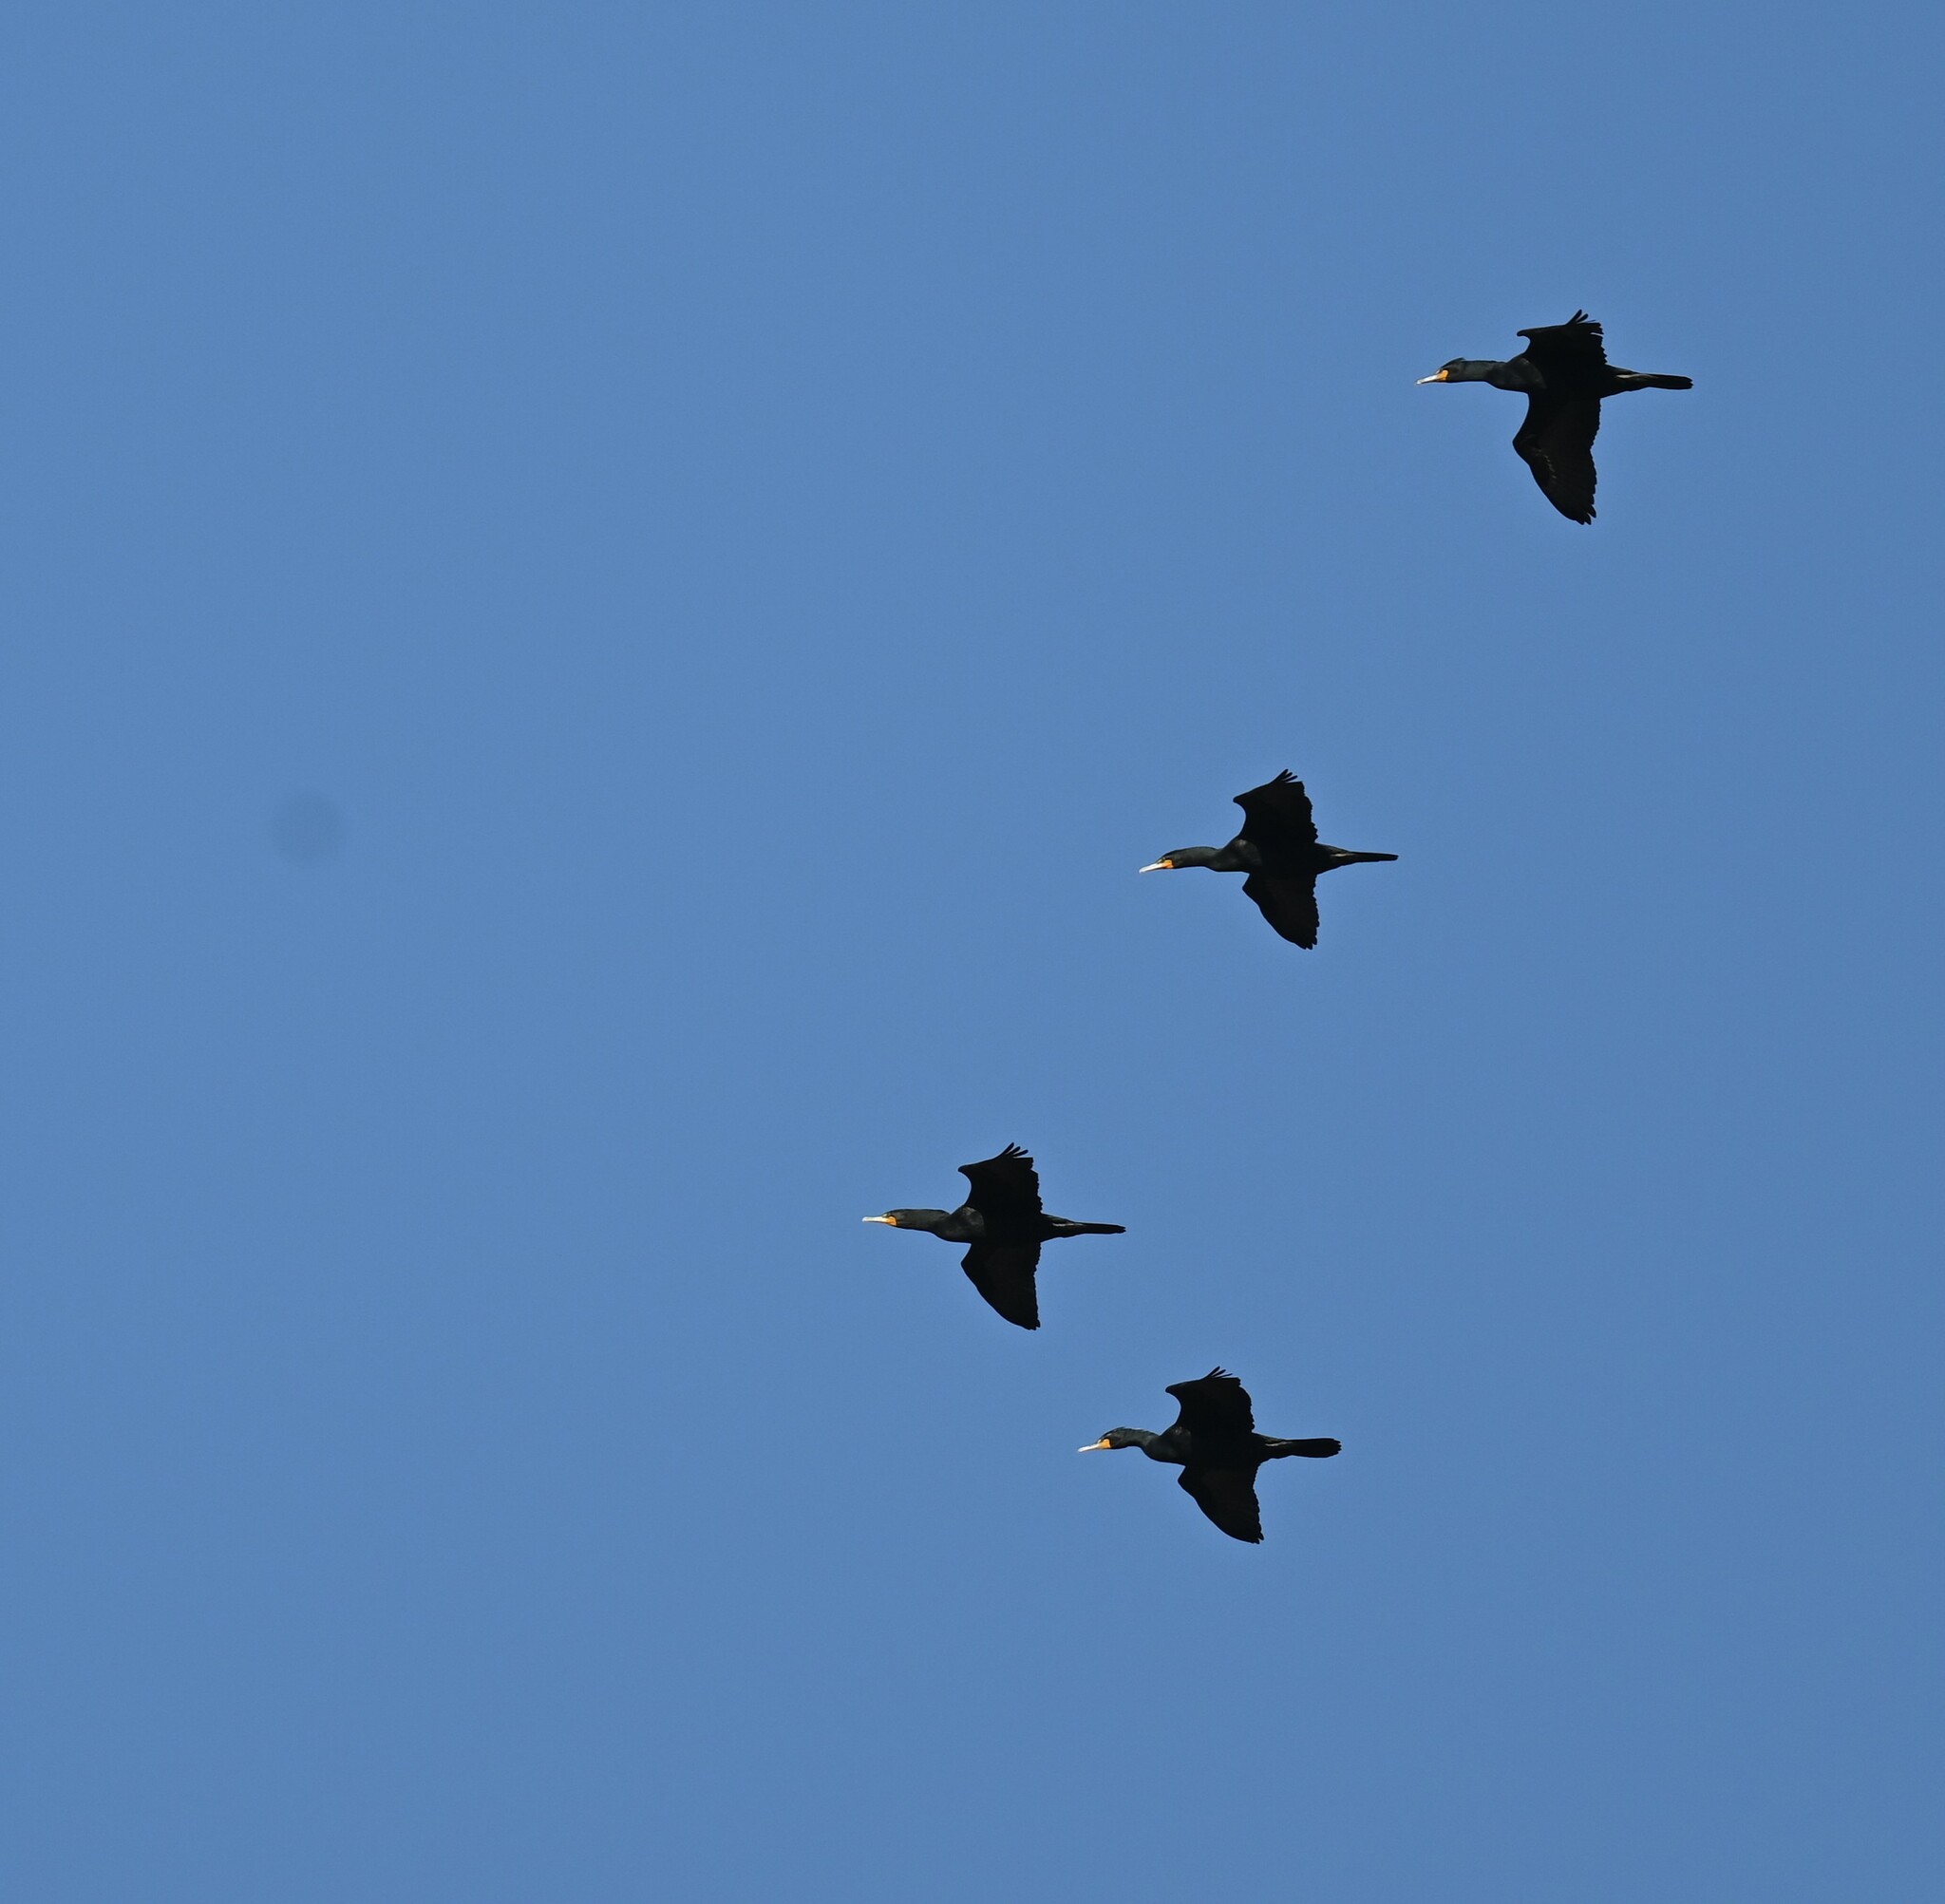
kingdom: Animalia
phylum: Chordata
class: Aves
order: Suliformes
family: Phalacrocoracidae
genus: Phalacrocorax
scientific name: Phalacrocorax auritus
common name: Double-crested cormorant
